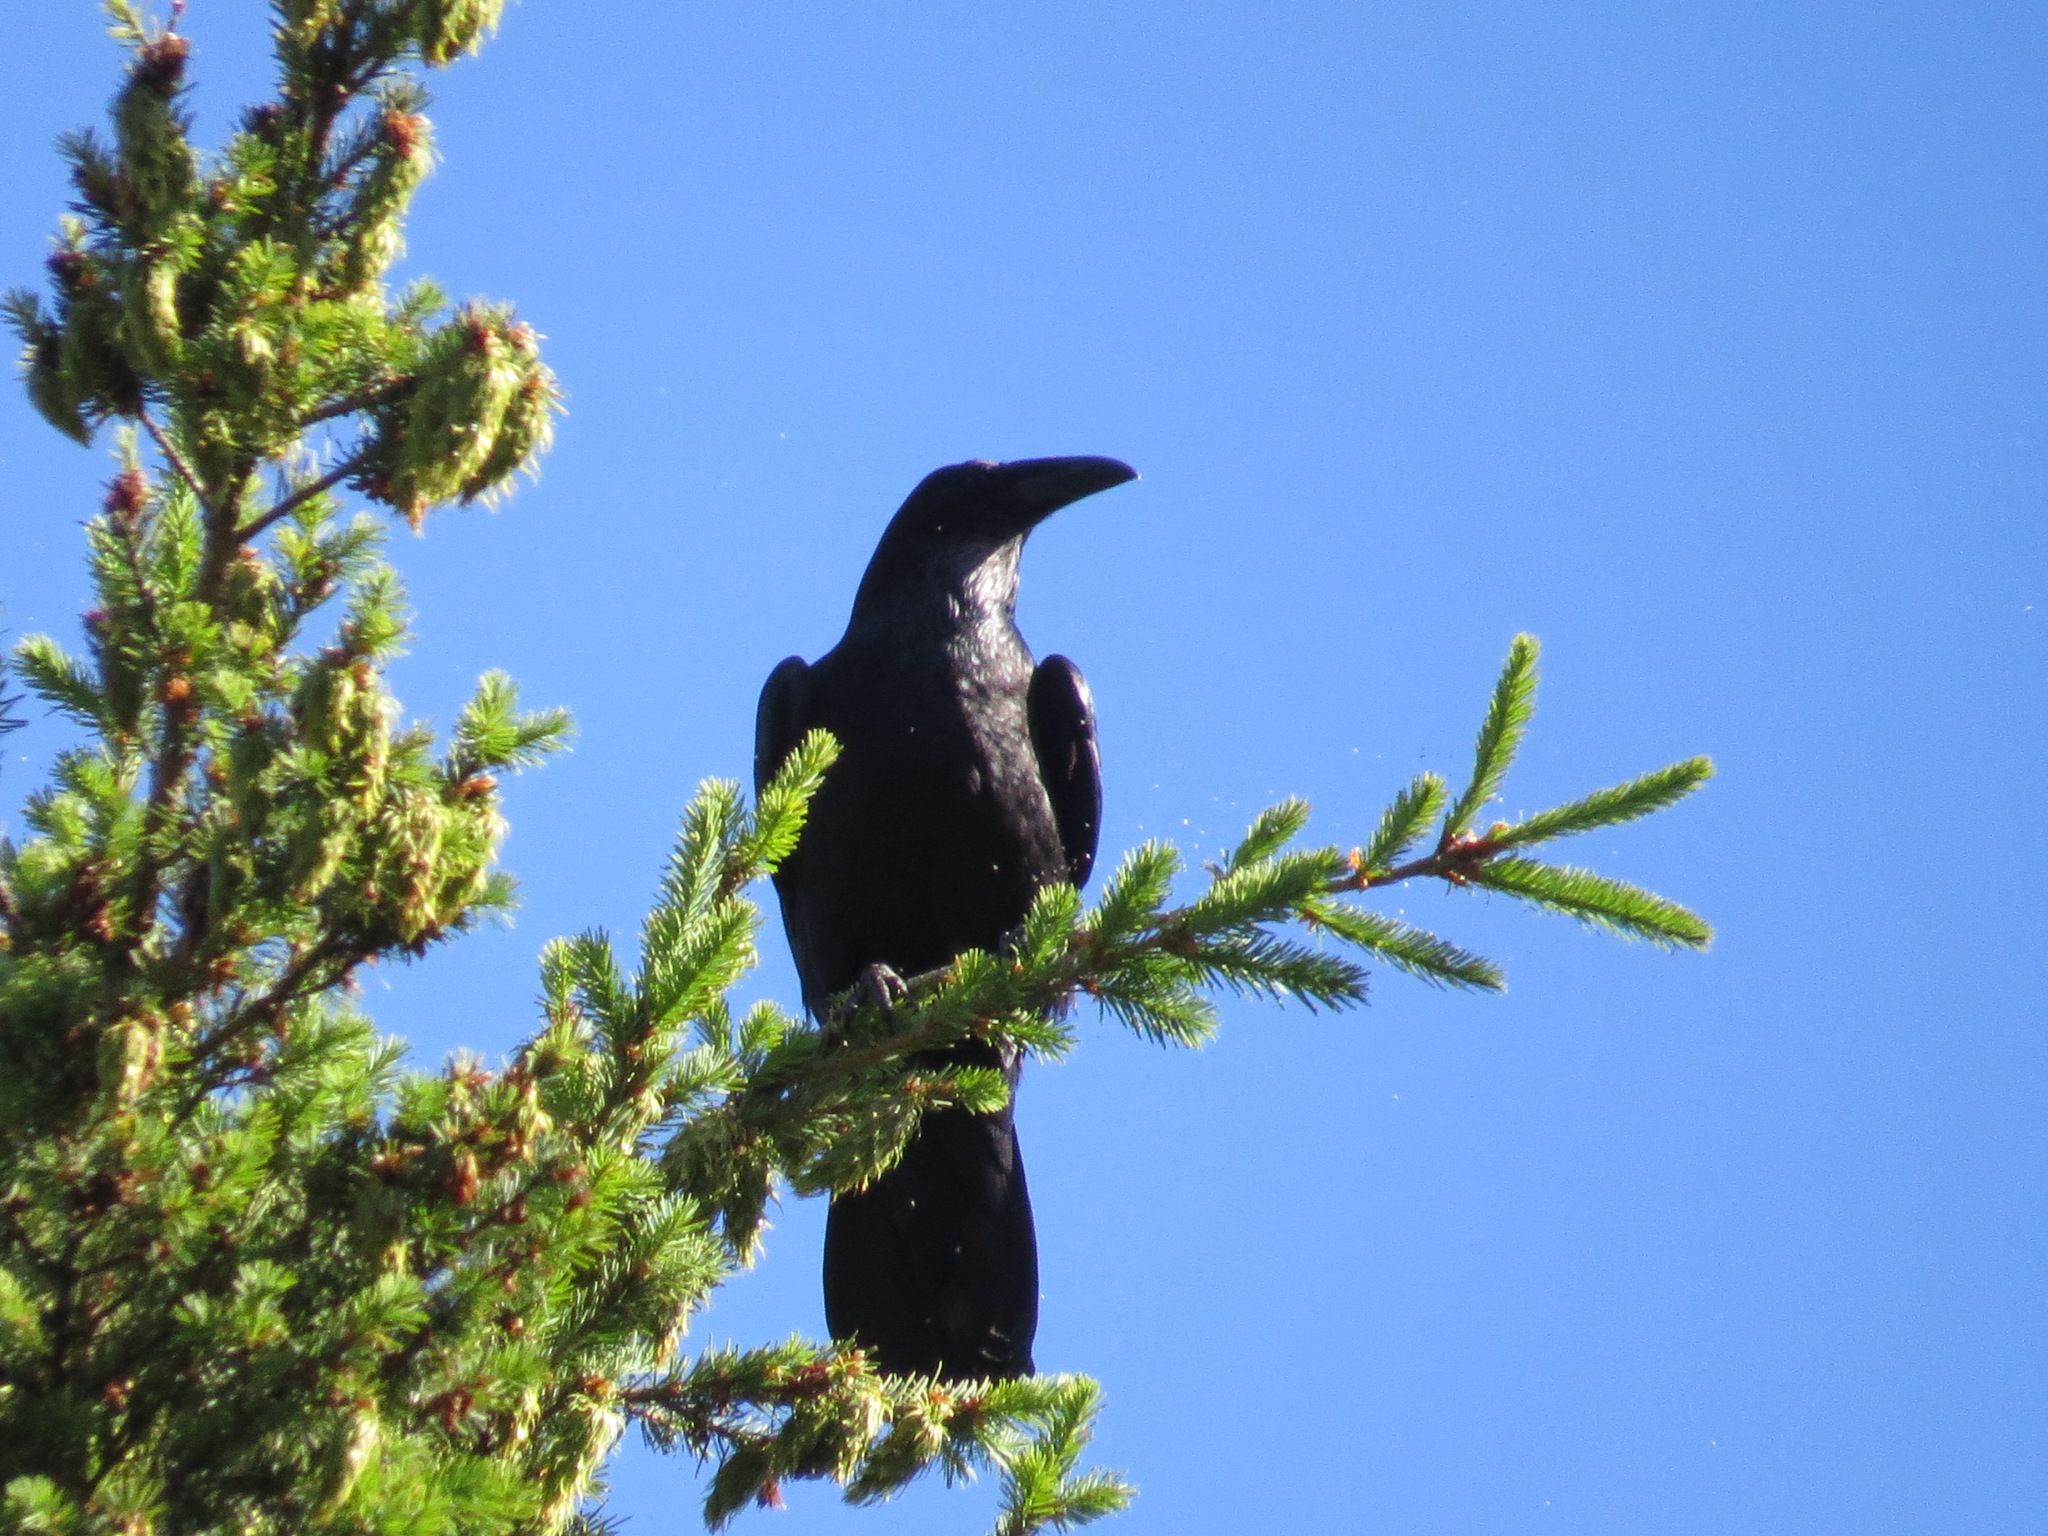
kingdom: Animalia
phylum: Chordata
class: Aves
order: Passeriformes
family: Corvidae
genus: Corvus
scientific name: Corvus corax
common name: Common raven
